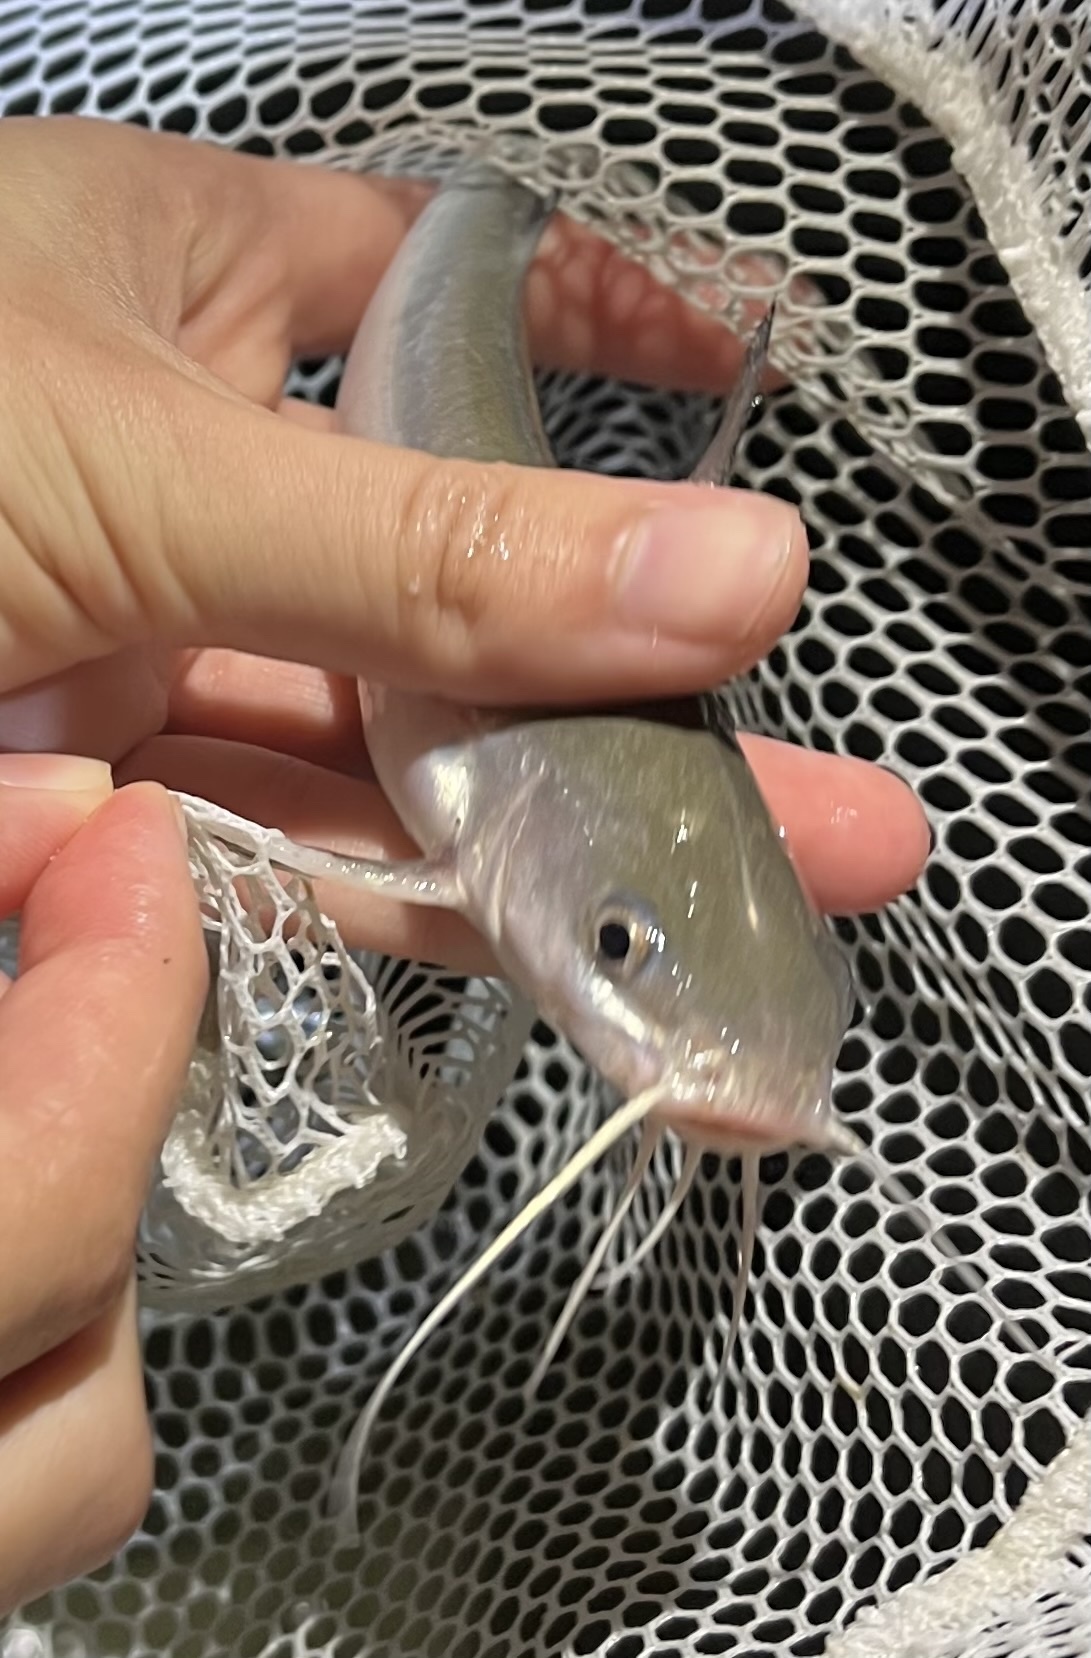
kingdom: Animalia
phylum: Chordata
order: Siluriformes
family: Ariidae
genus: Ariopsis
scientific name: Ariopsis felis
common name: Hardhead catfish
